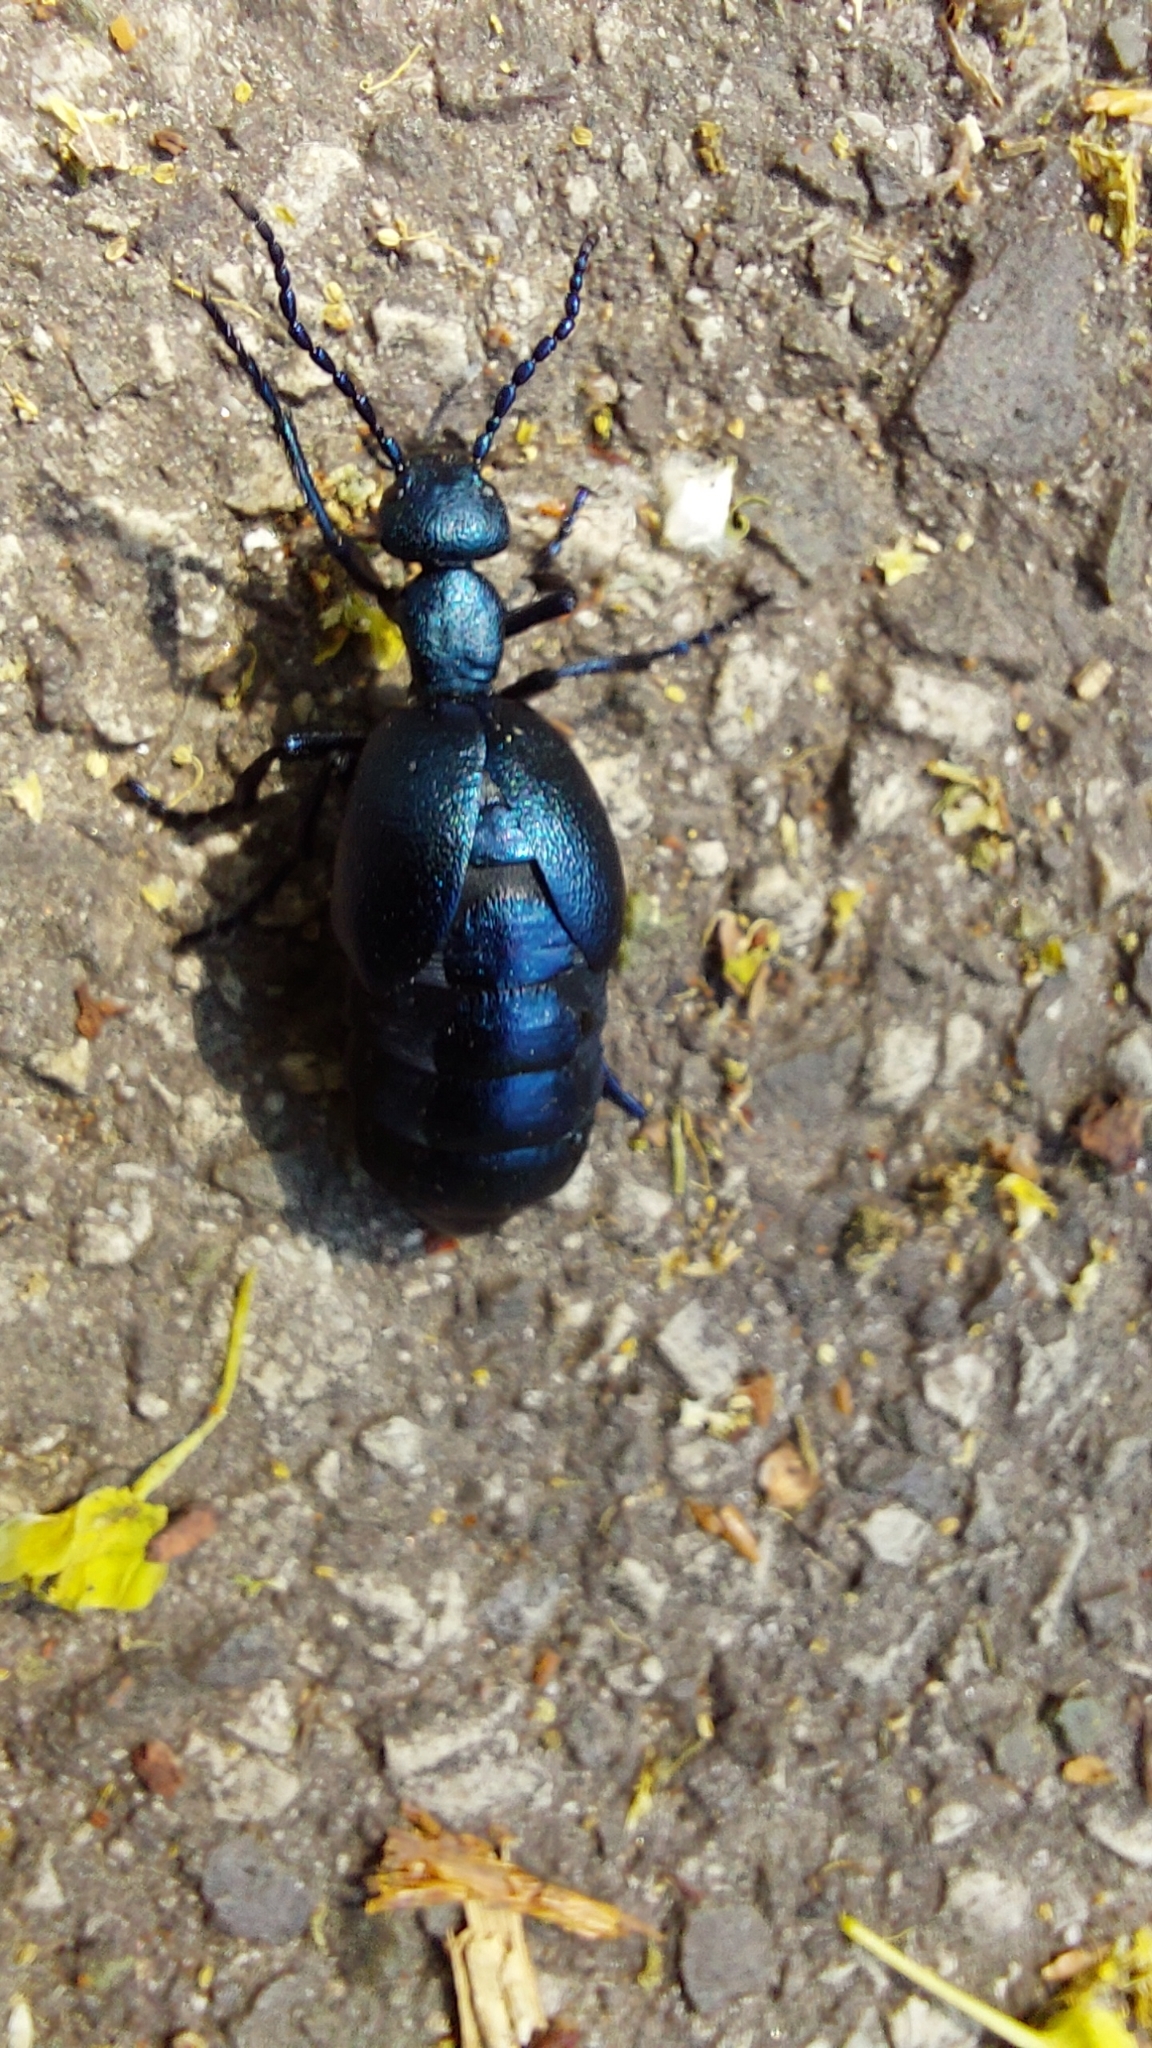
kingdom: Animalia
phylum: Arthropoda
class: Insecta
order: Coleoptera
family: Meloidae
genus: Meloe
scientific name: Meloe violaceus
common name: Violet oil-beetle
